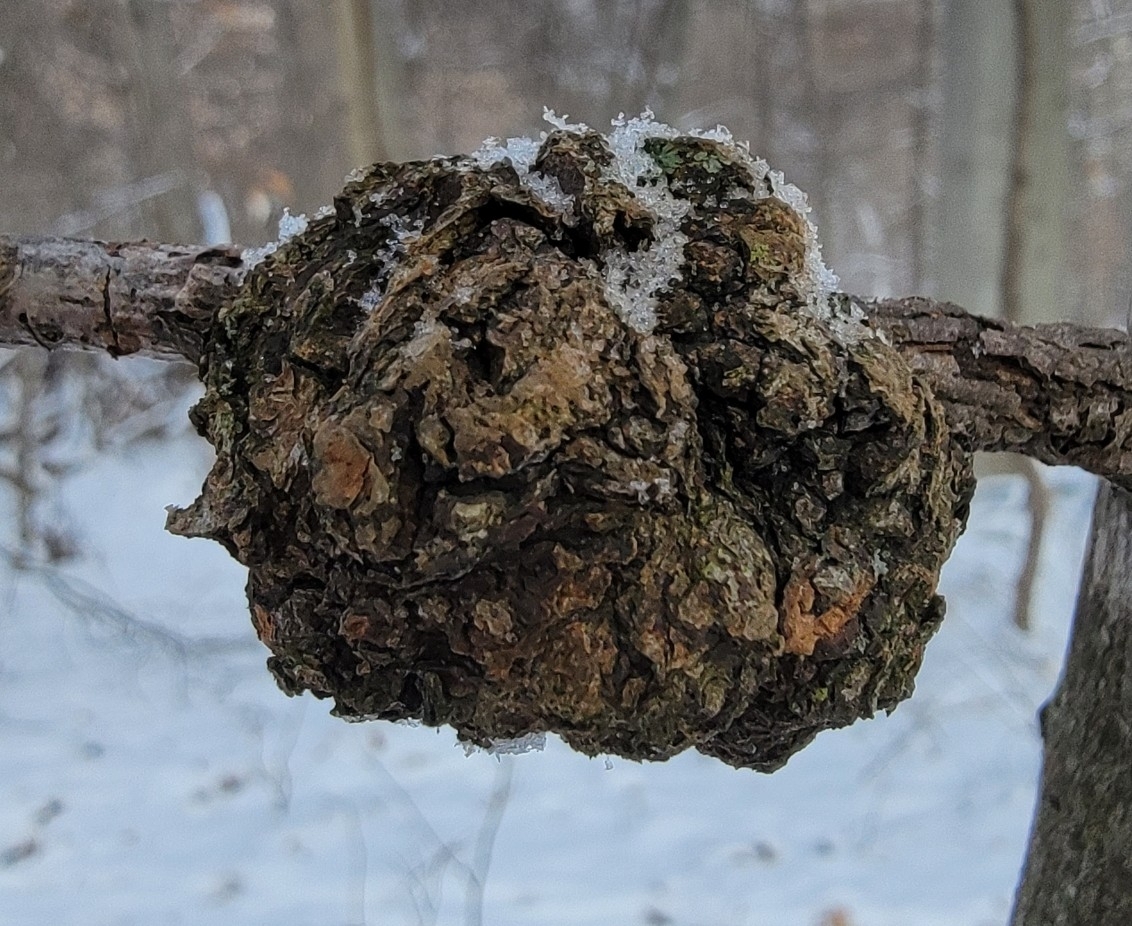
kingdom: Bacteria
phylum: Proteobacteria
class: Alphaproteobacteria
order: Rhizobiales
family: Rhizobiaceae
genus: Rhizobium
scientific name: Rhizobium Agrobacterium radiobacter
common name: Bacterial crown gall
